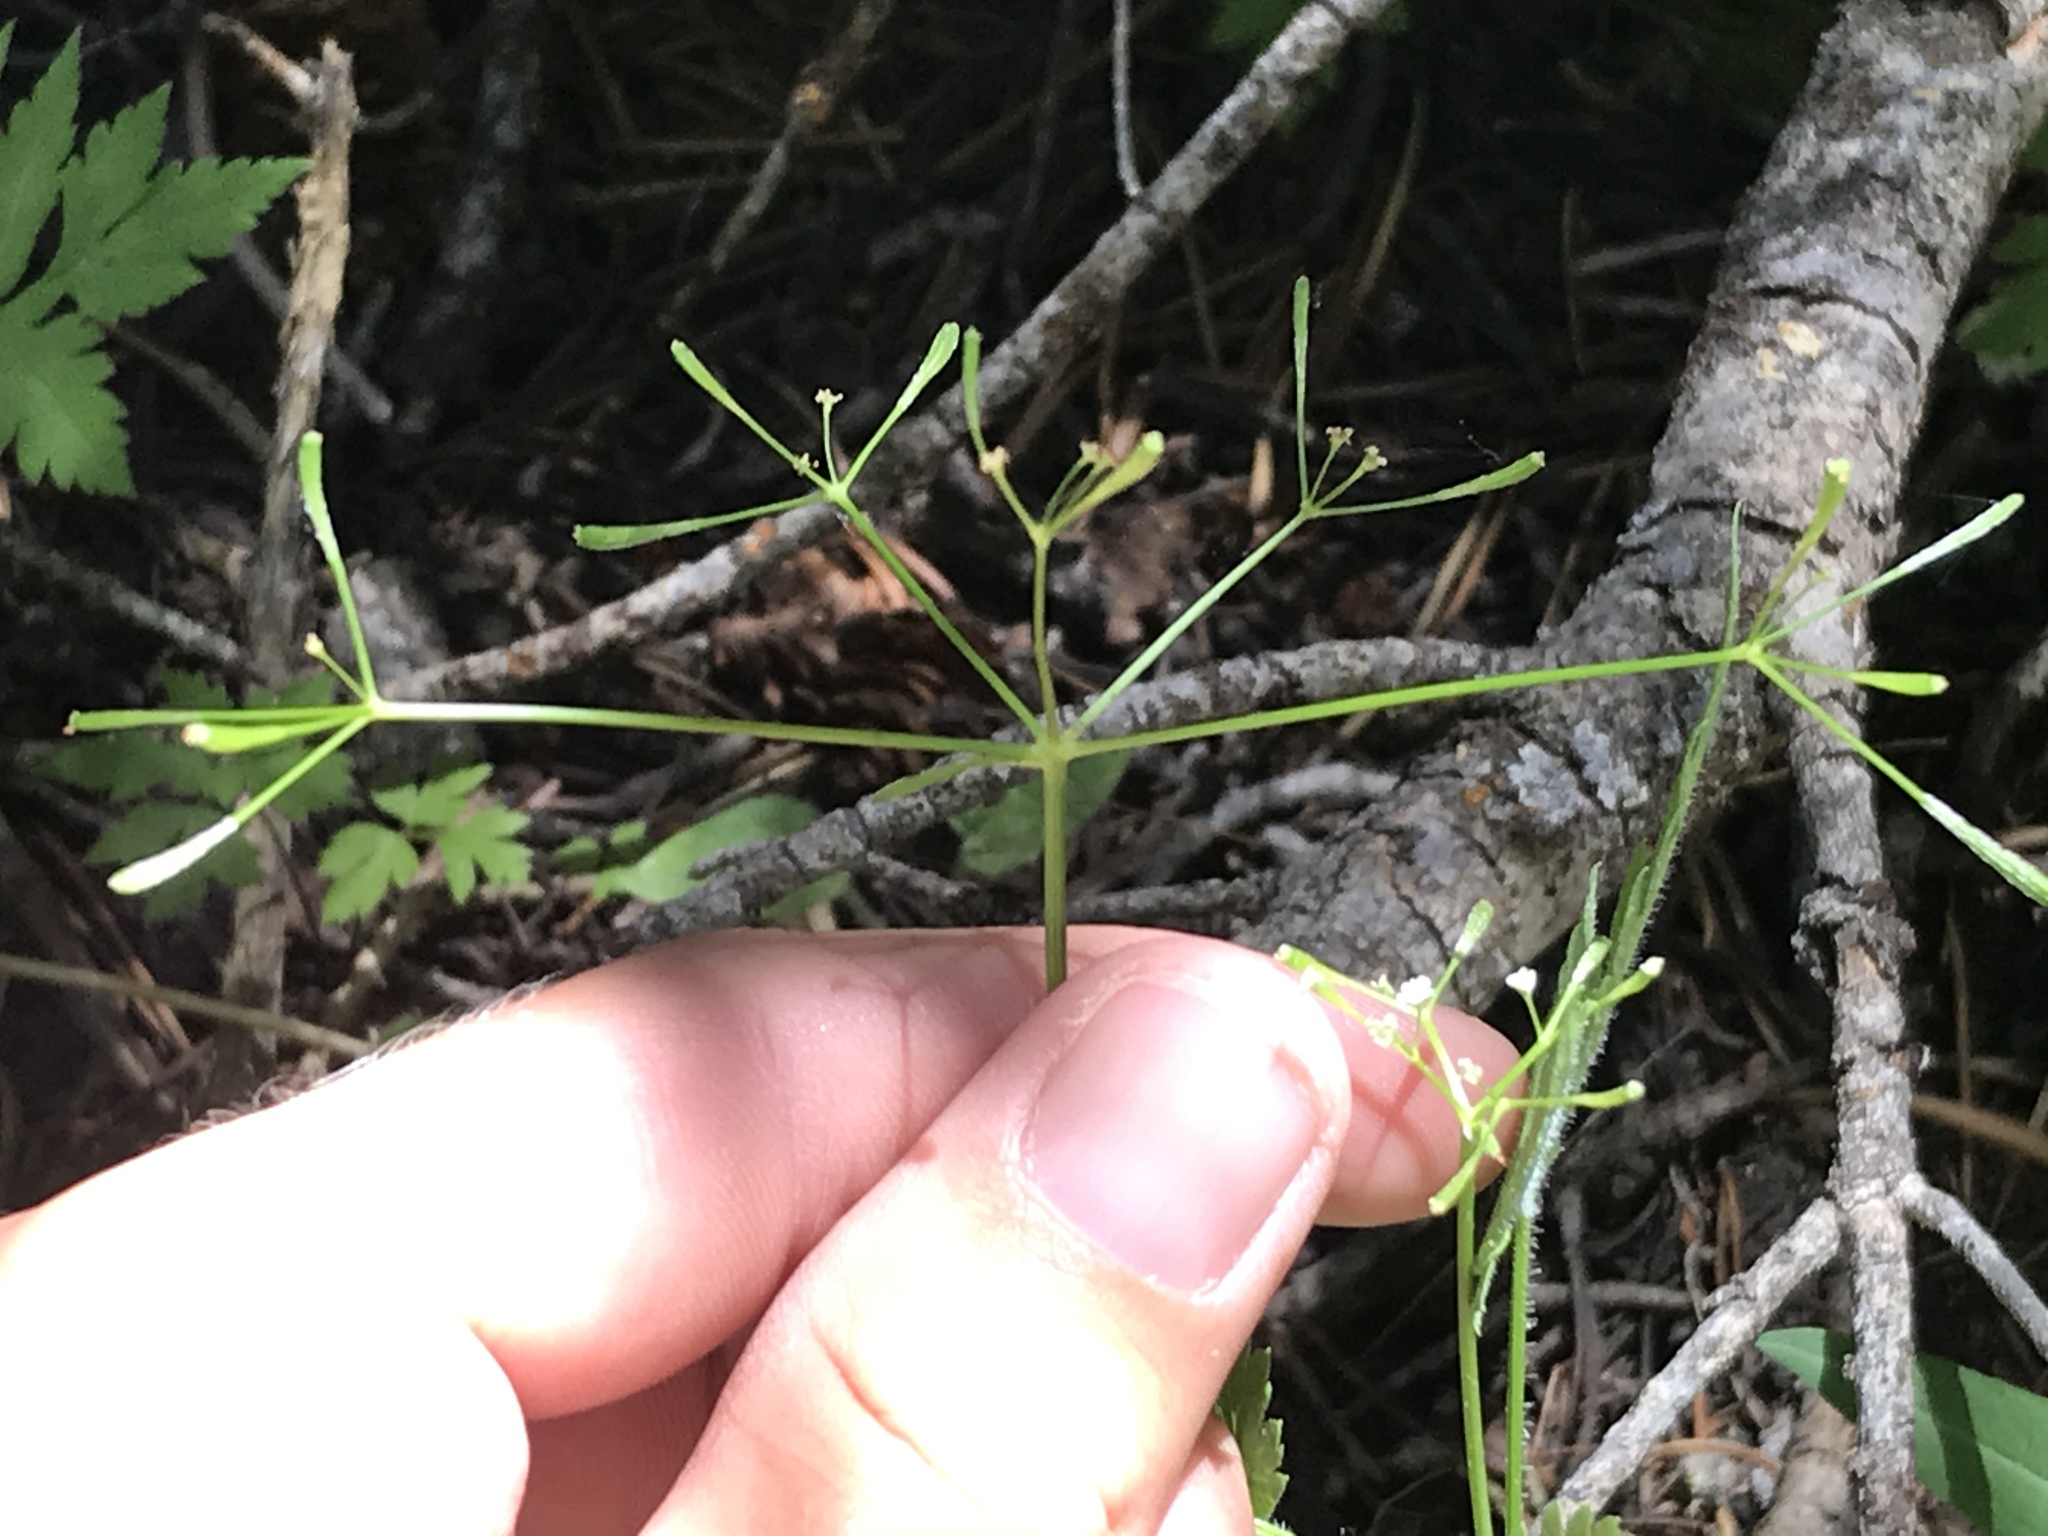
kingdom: Plantae
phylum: Tracheophyta
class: Magnoliopsida
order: Apiales
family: Apiaceae
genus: Osmorhiza
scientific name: Osmorhiza berteroi
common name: Mountain sweet cicely
